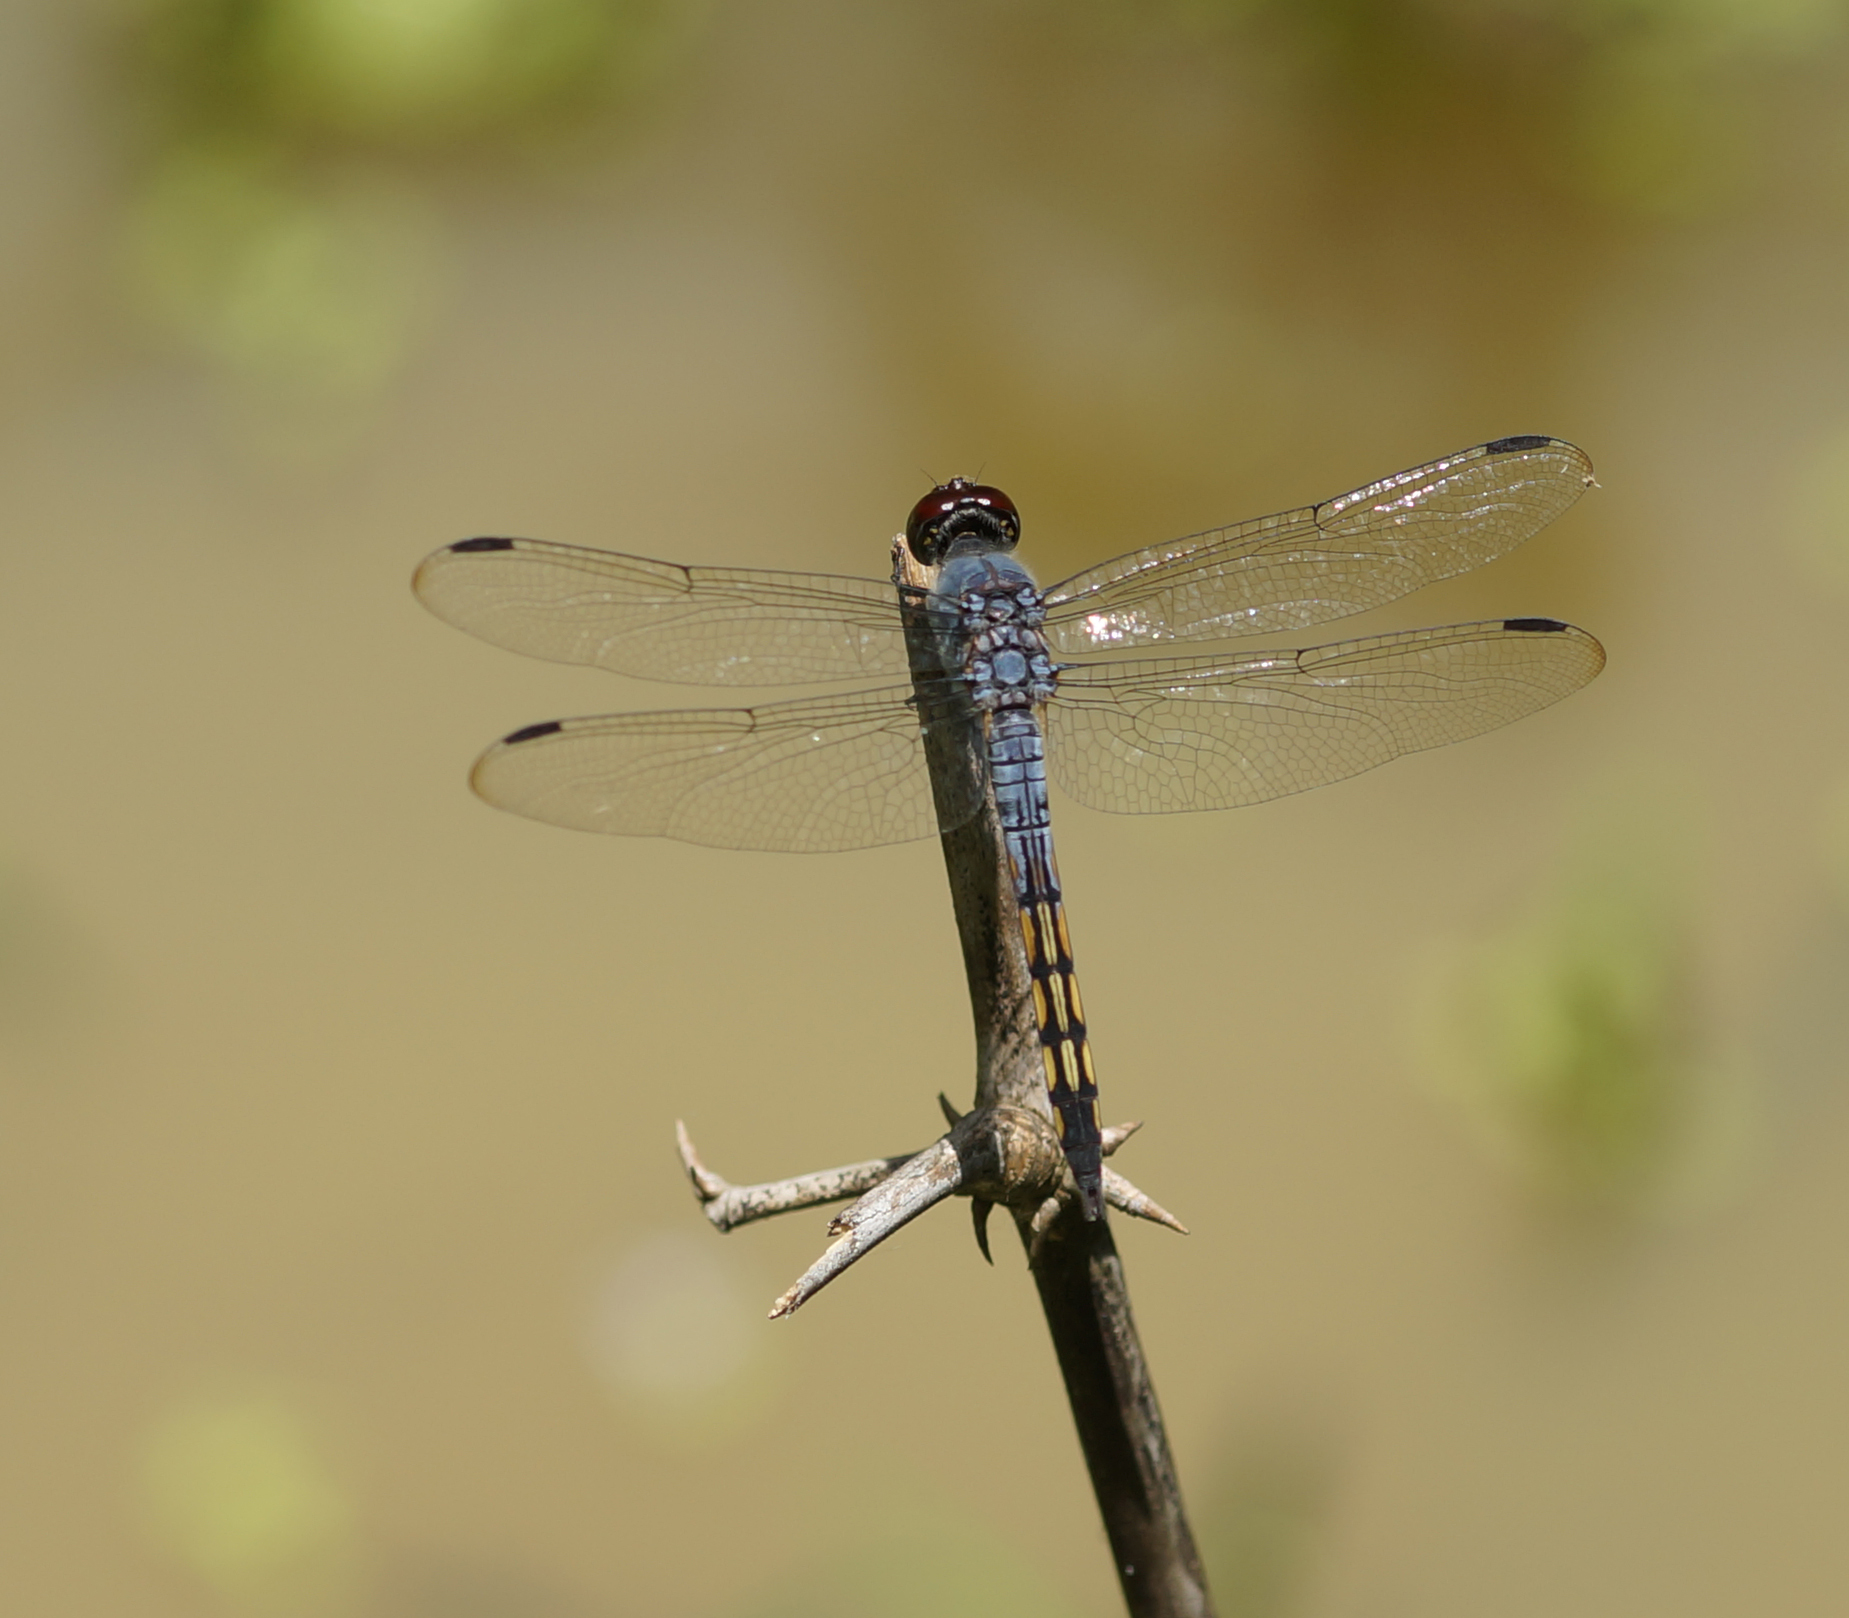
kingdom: Animalia
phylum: Arthropoda
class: Insecta
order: Odonata
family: Libellulidae
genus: Potamarcha
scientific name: Potamarcha congener
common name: Blue chaser
